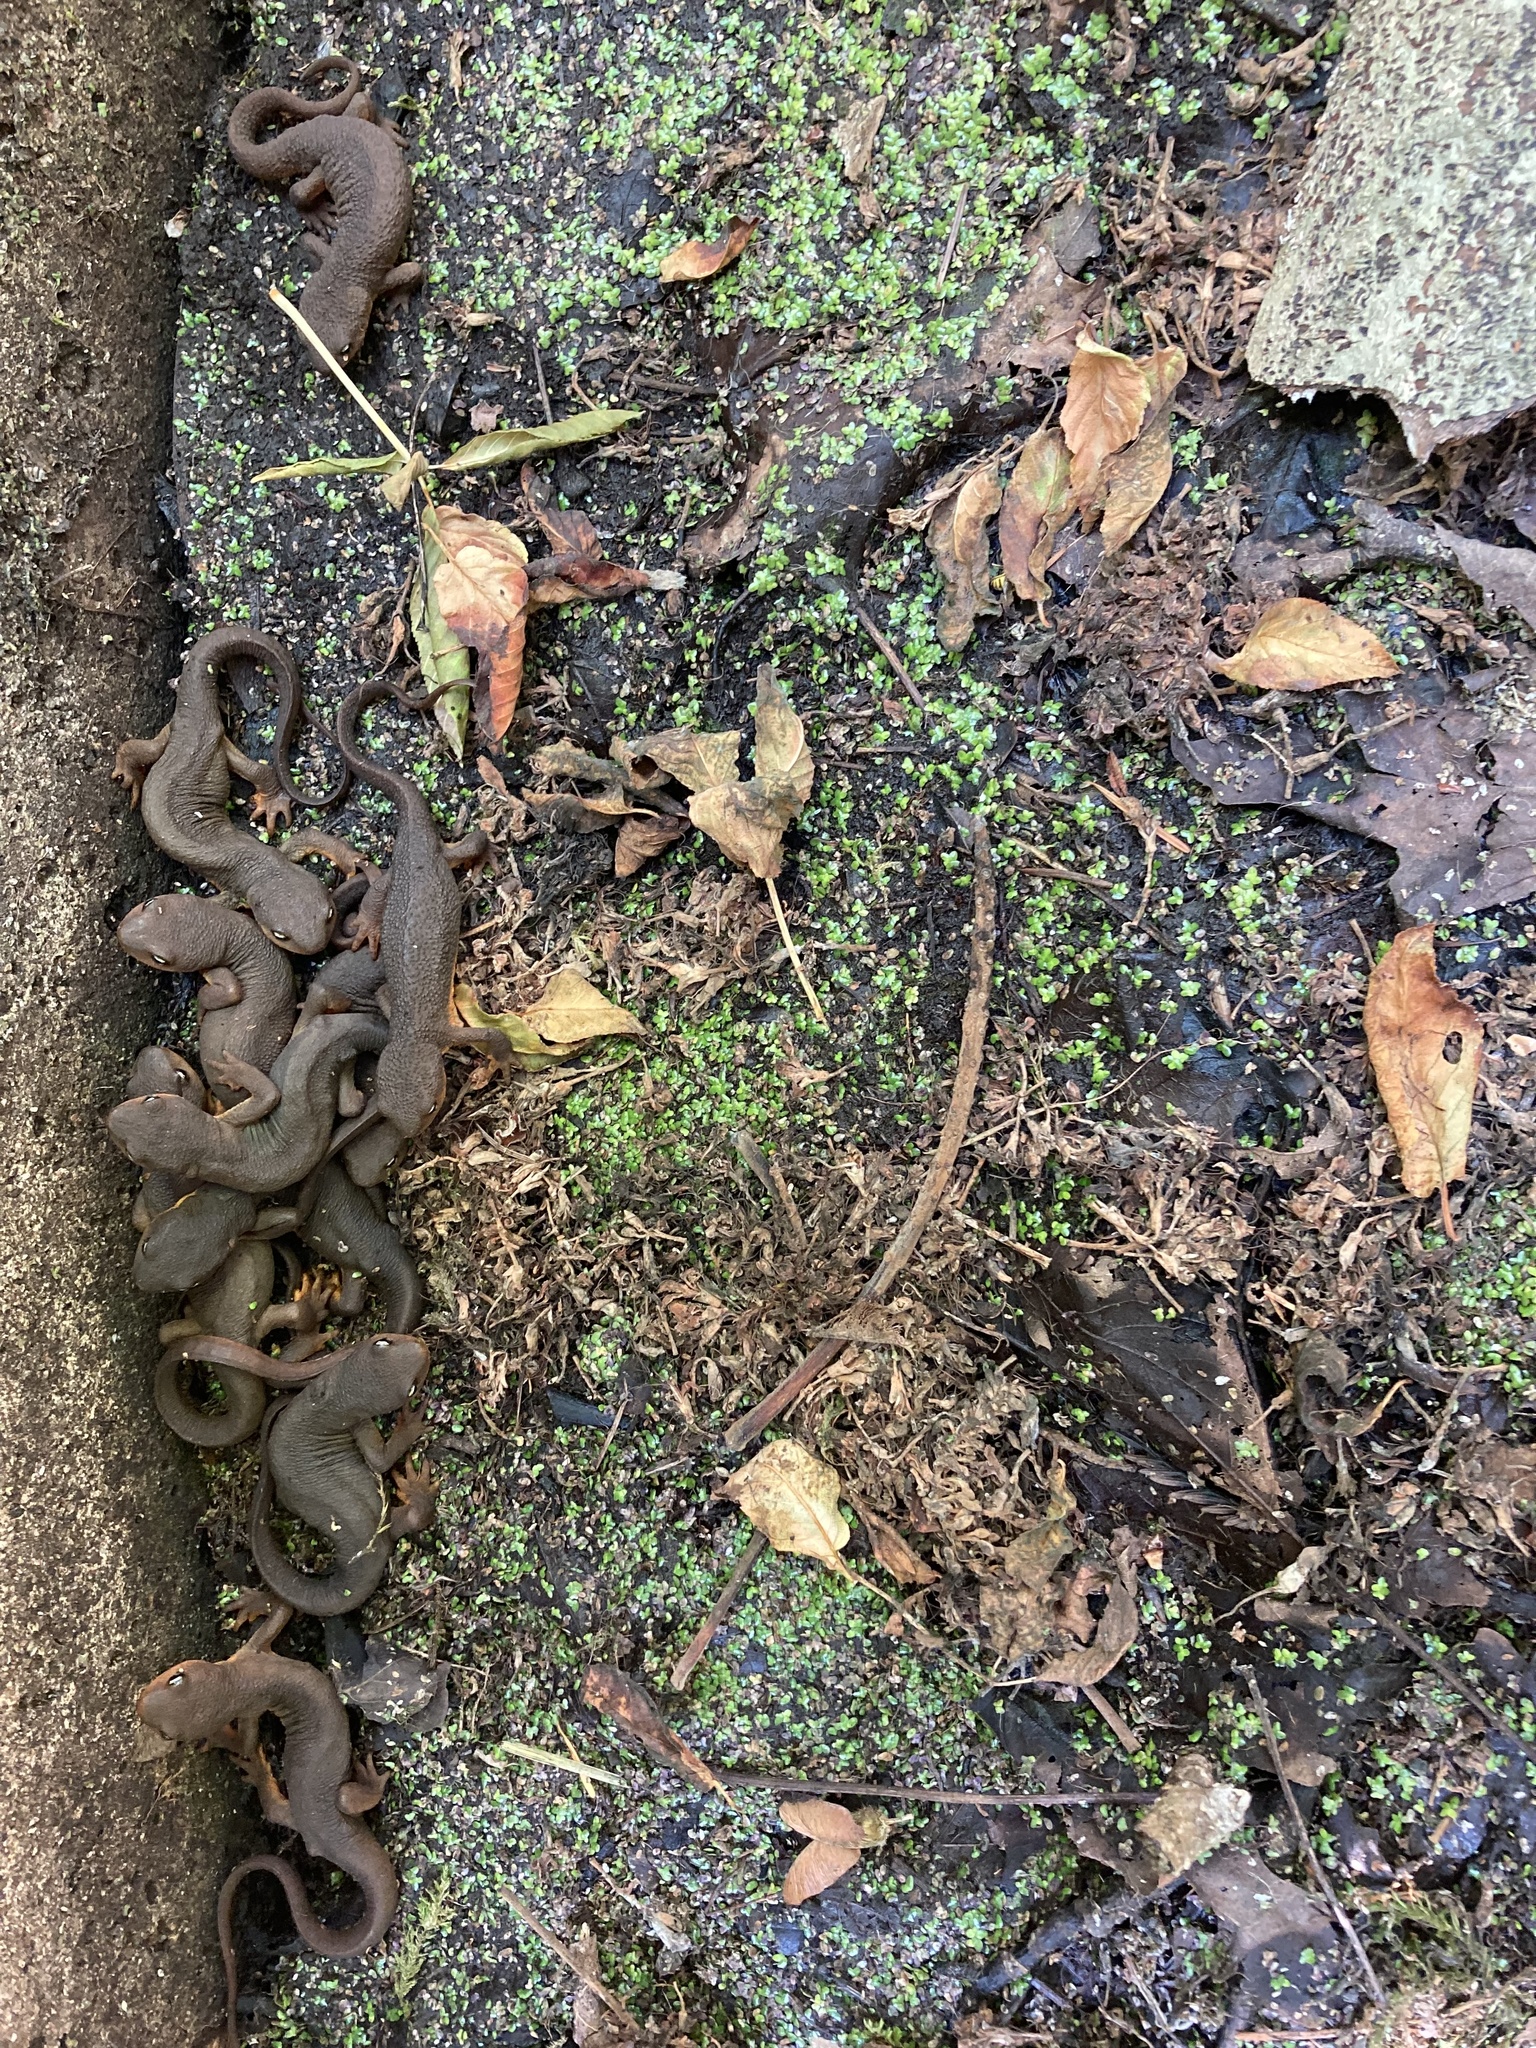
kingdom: Animalia
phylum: Chordata
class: Amphibia
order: Caudata
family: Salamandridae
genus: Taricha
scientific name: Taricha granulosa
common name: Roughskin newt
